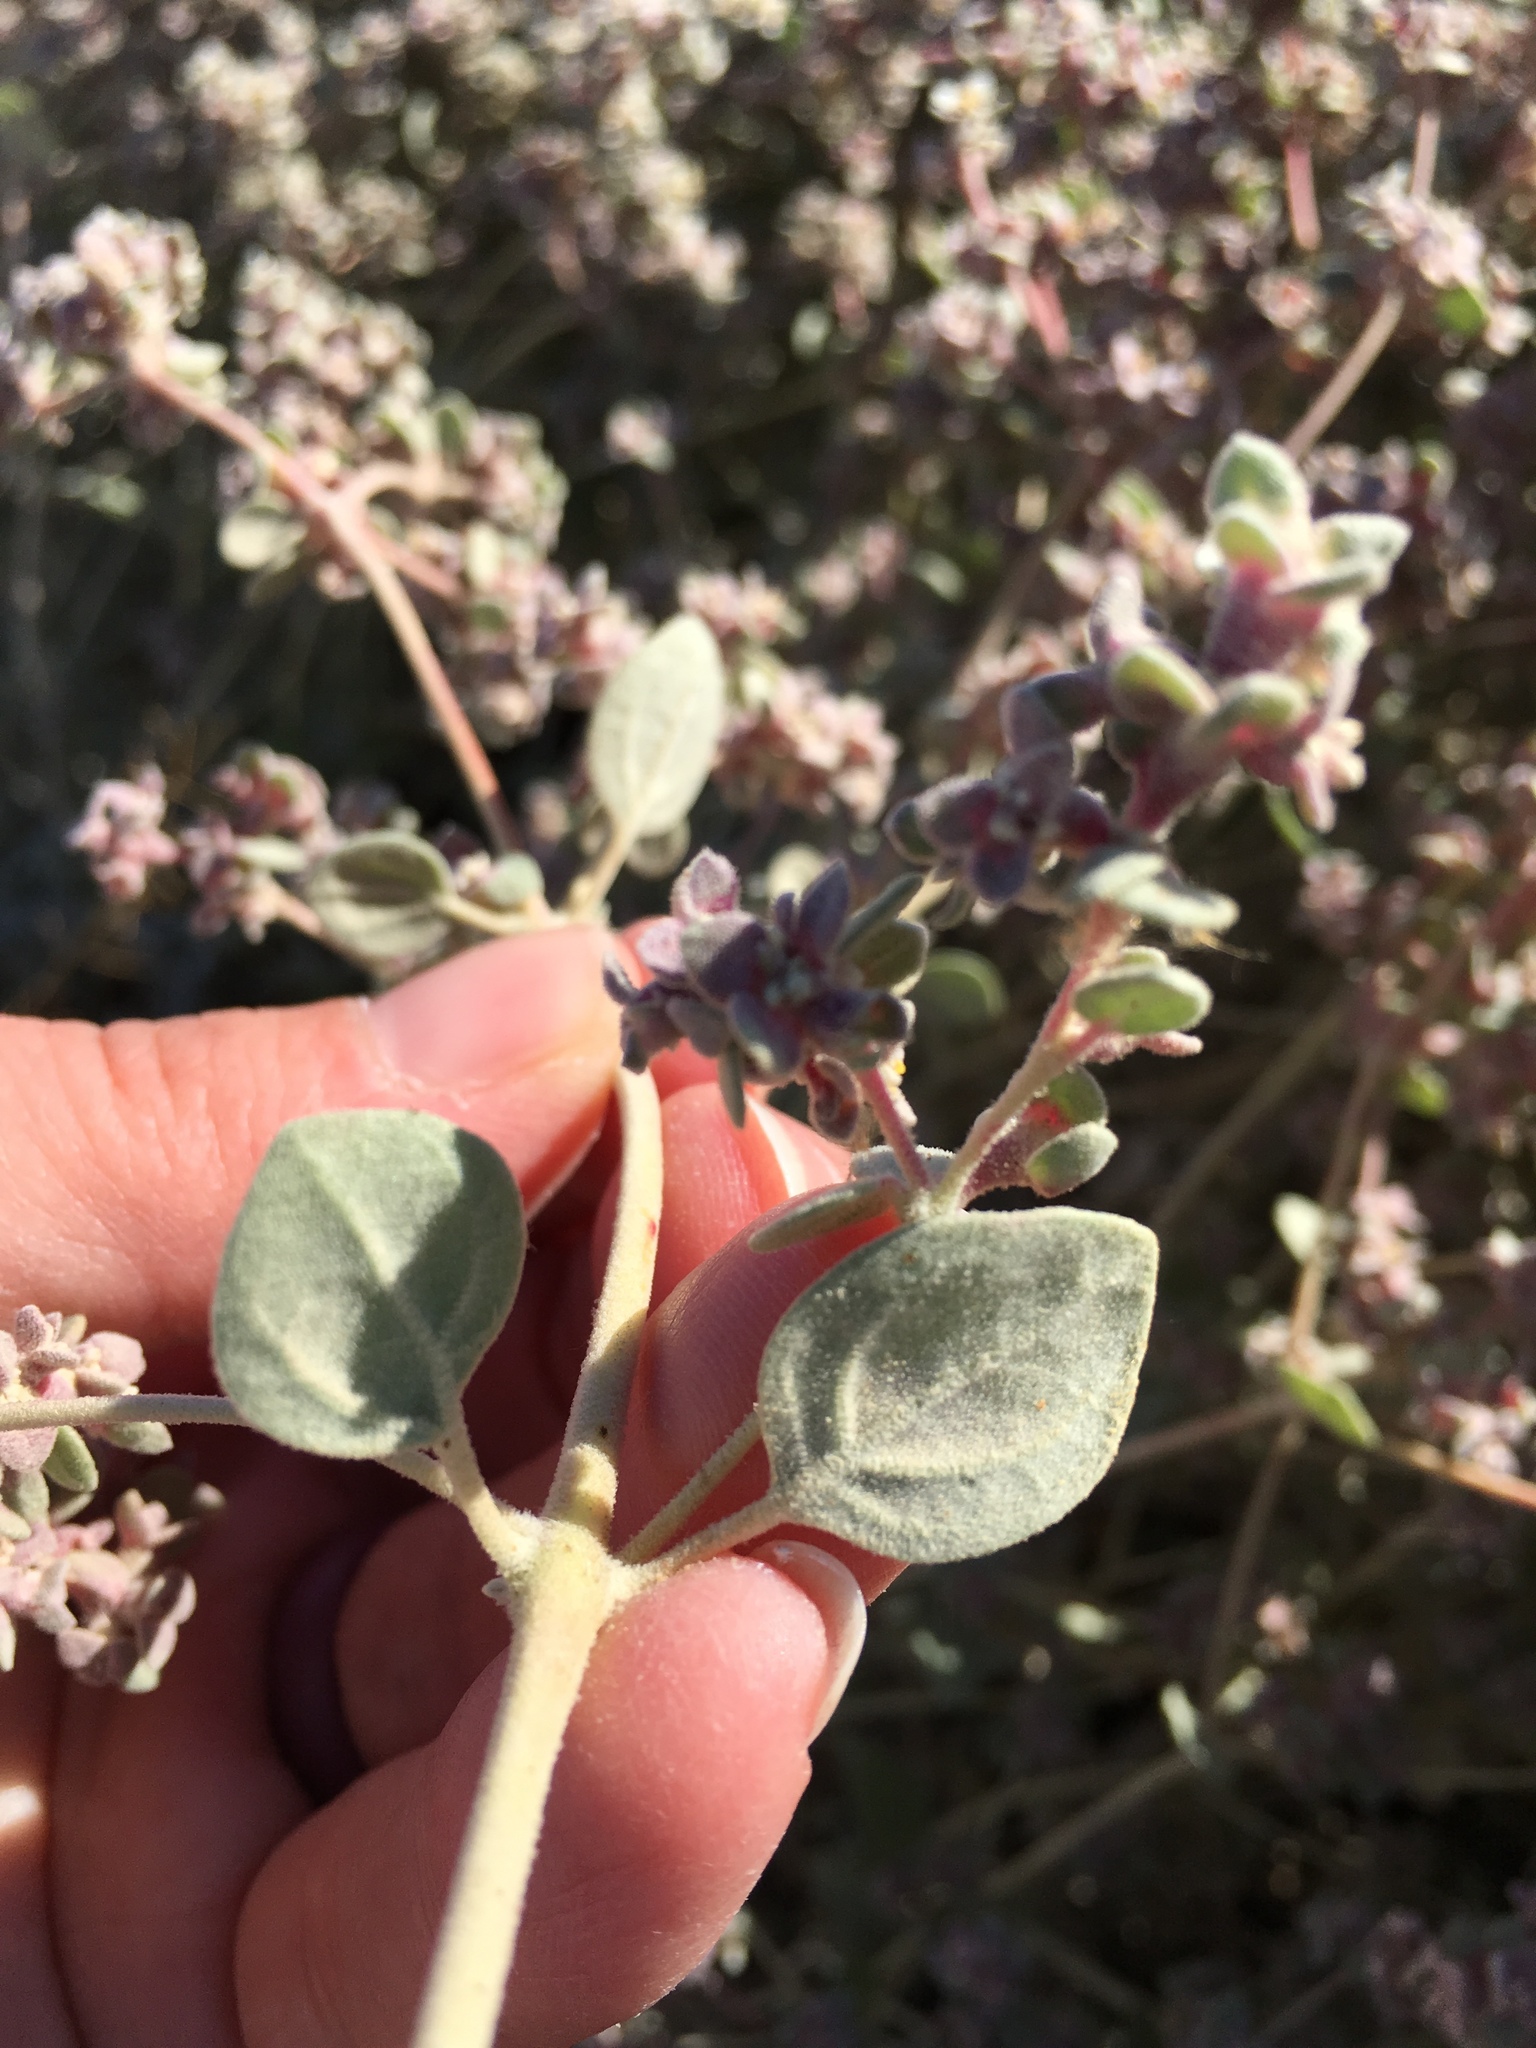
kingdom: Plantae
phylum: Tracheophyta
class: Magnoliopsida
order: Caryophyllales
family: Amaranthaceae
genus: Tidestromia
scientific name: Tidestromia suffruticosa
